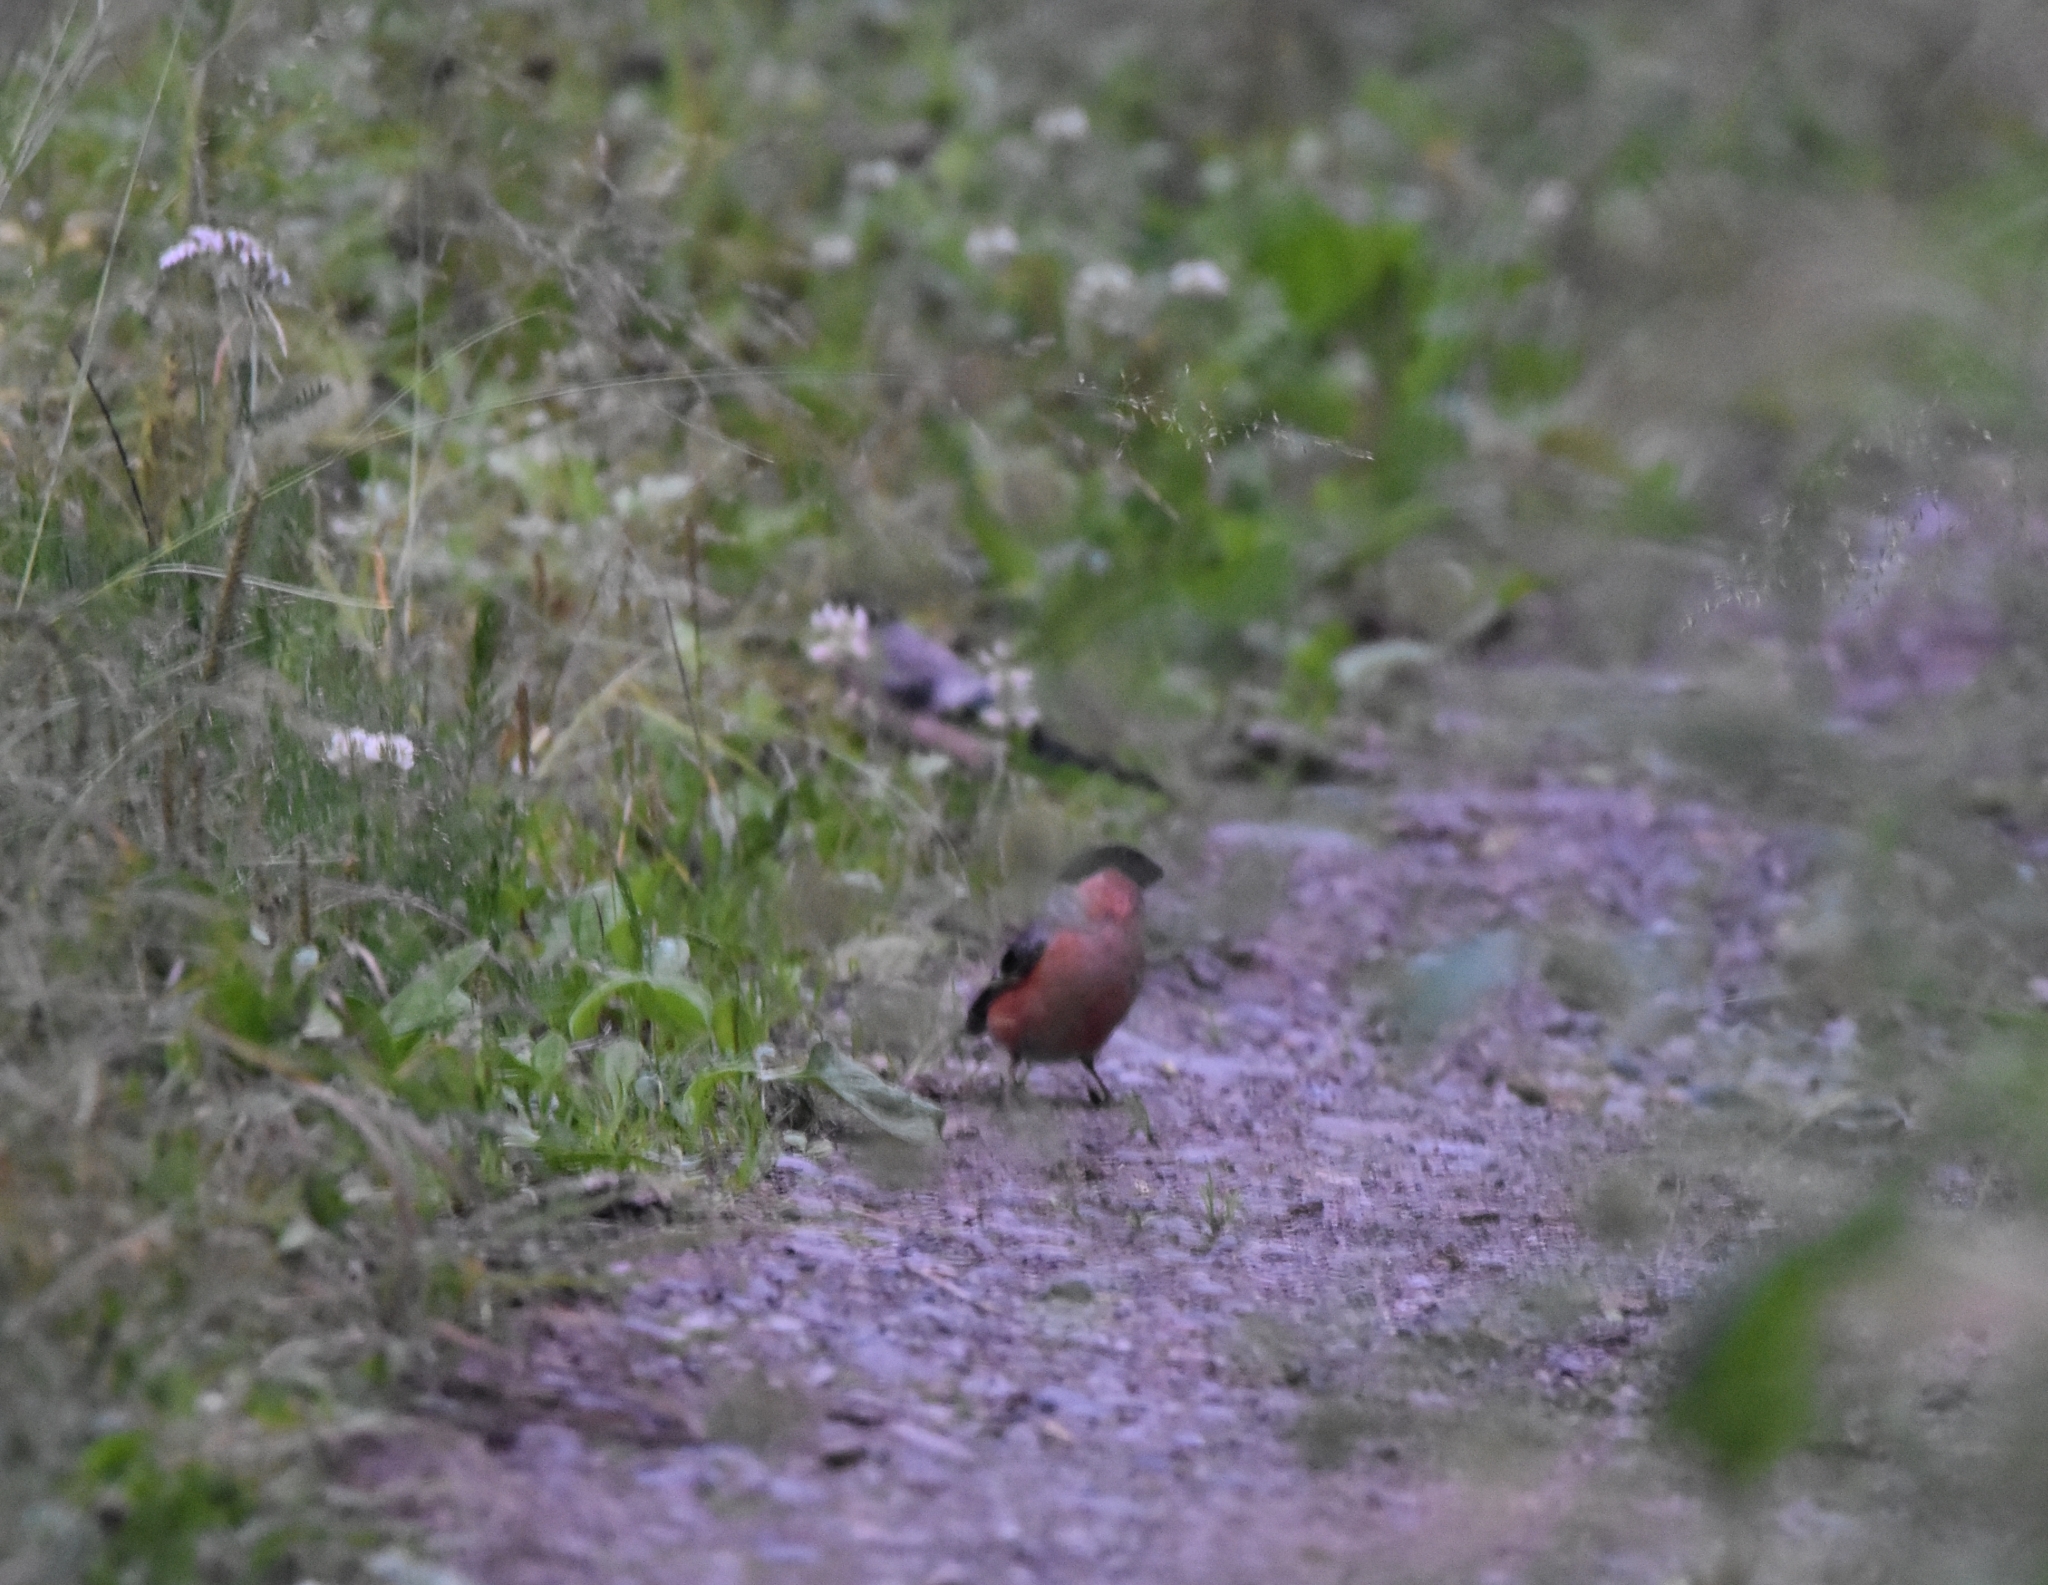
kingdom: Animalia
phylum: Chordata
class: Aves
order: Passeriformes
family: Fringillidae
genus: Pyrrhula
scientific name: Pyrrhula pyrrhula
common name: Eurasian bullfinch
